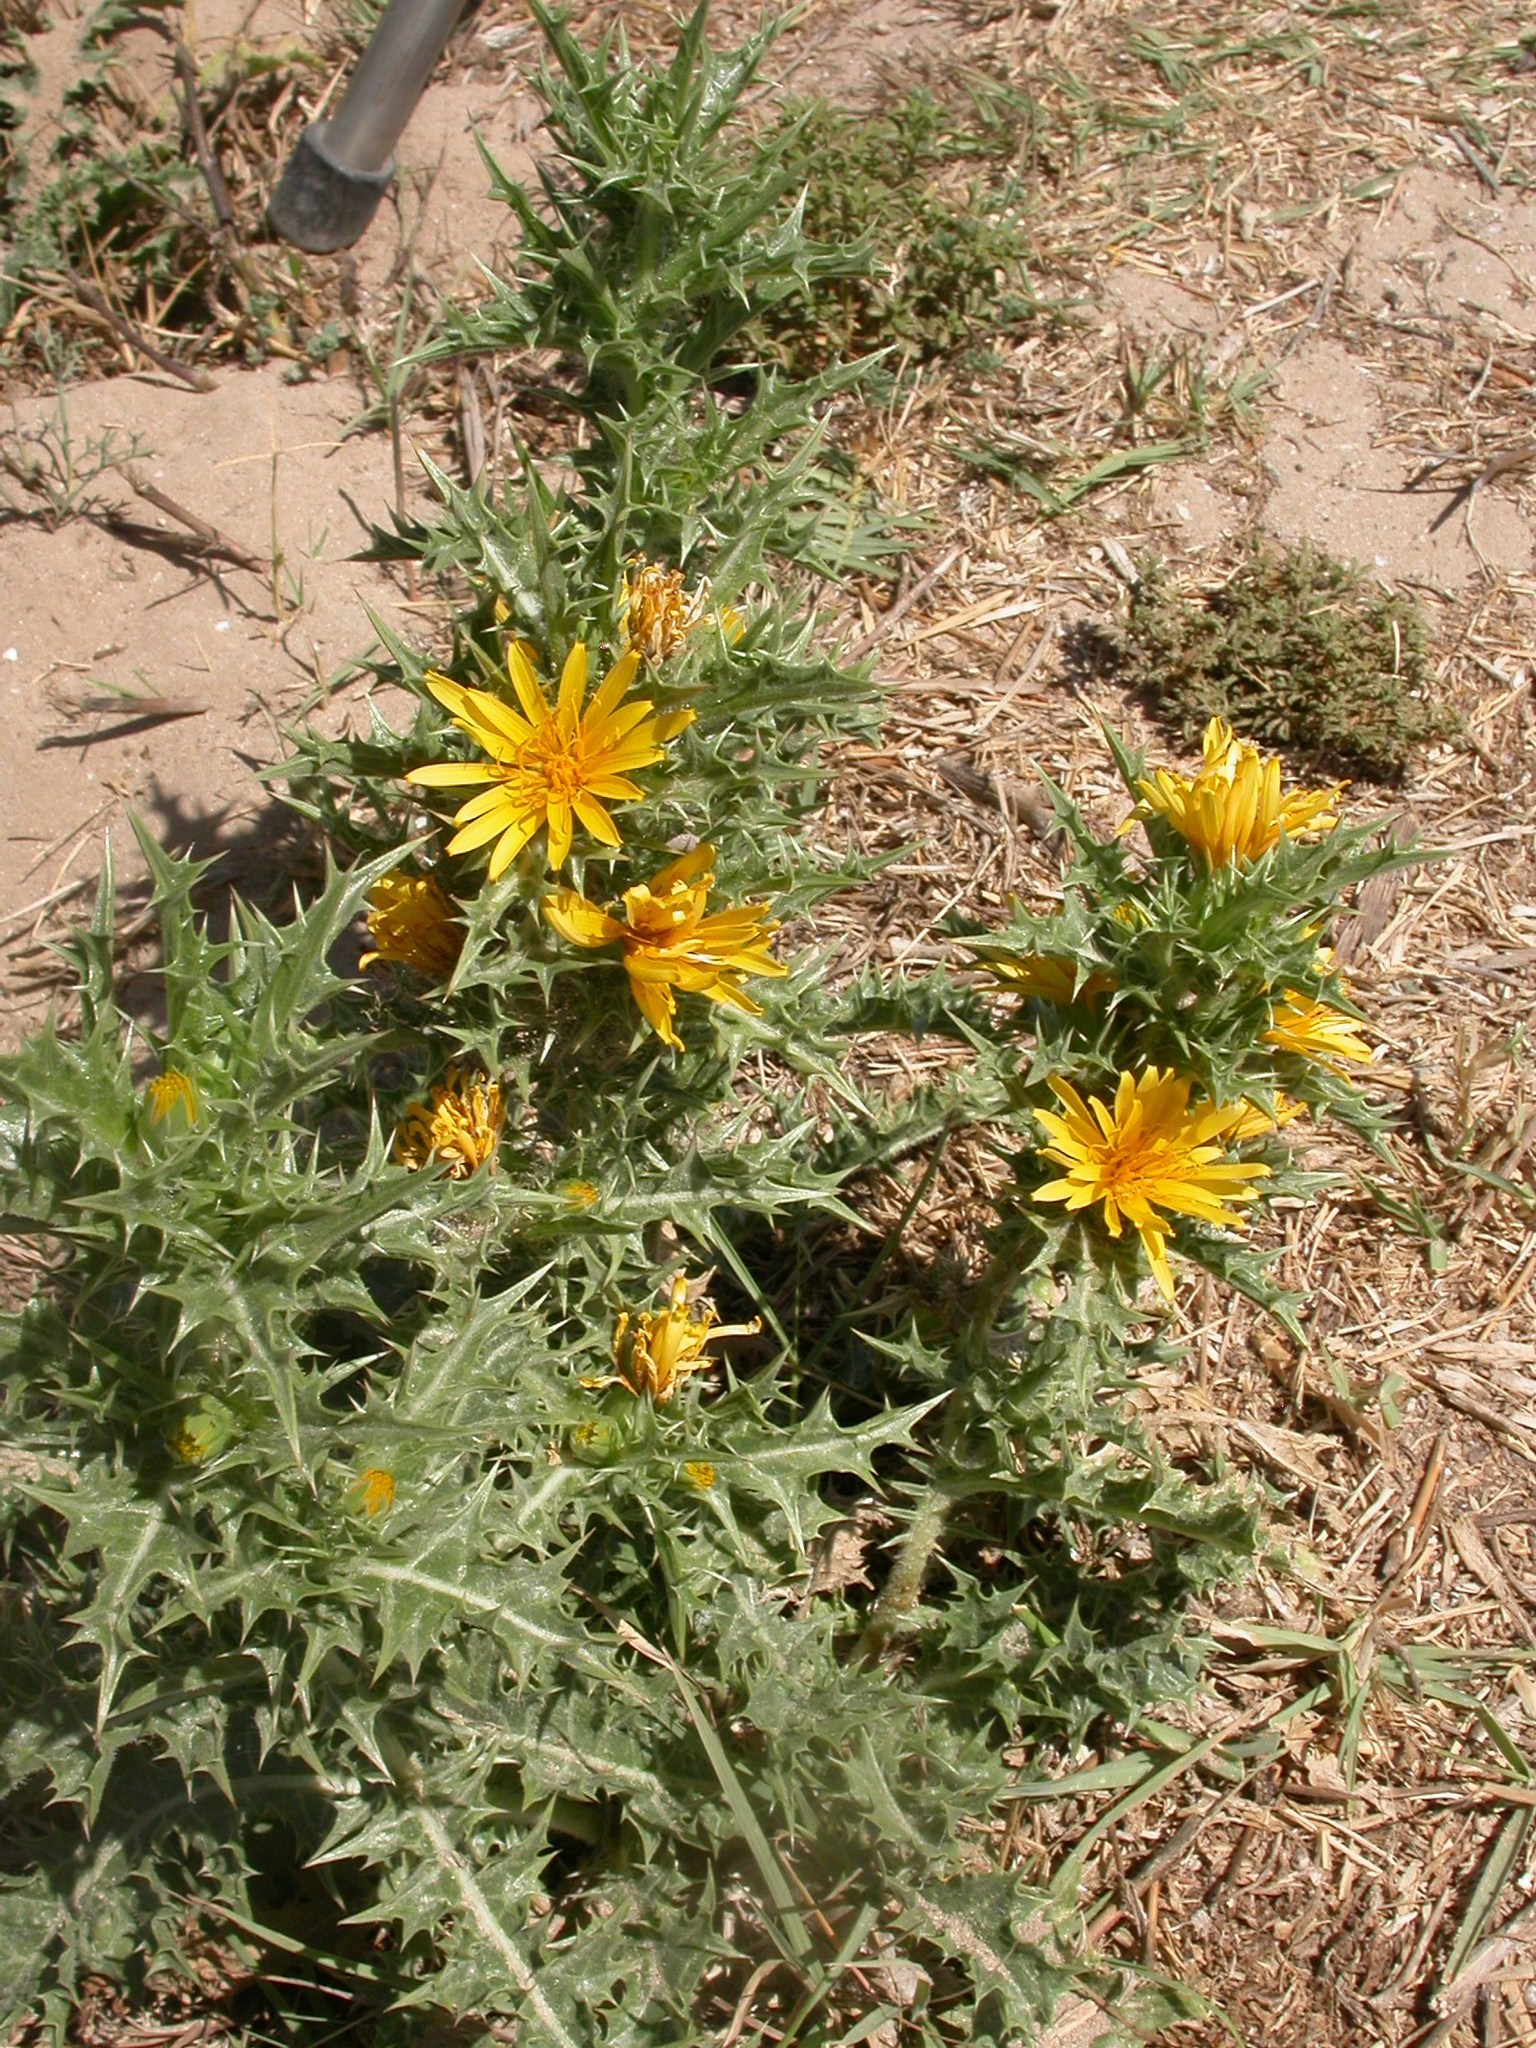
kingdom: Plantae
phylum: Tracheophyta
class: Magnoliopsida
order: Asterales
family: Asteraceae
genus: Scolymus
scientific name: Scolymus hispanicus
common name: Golden thistle
